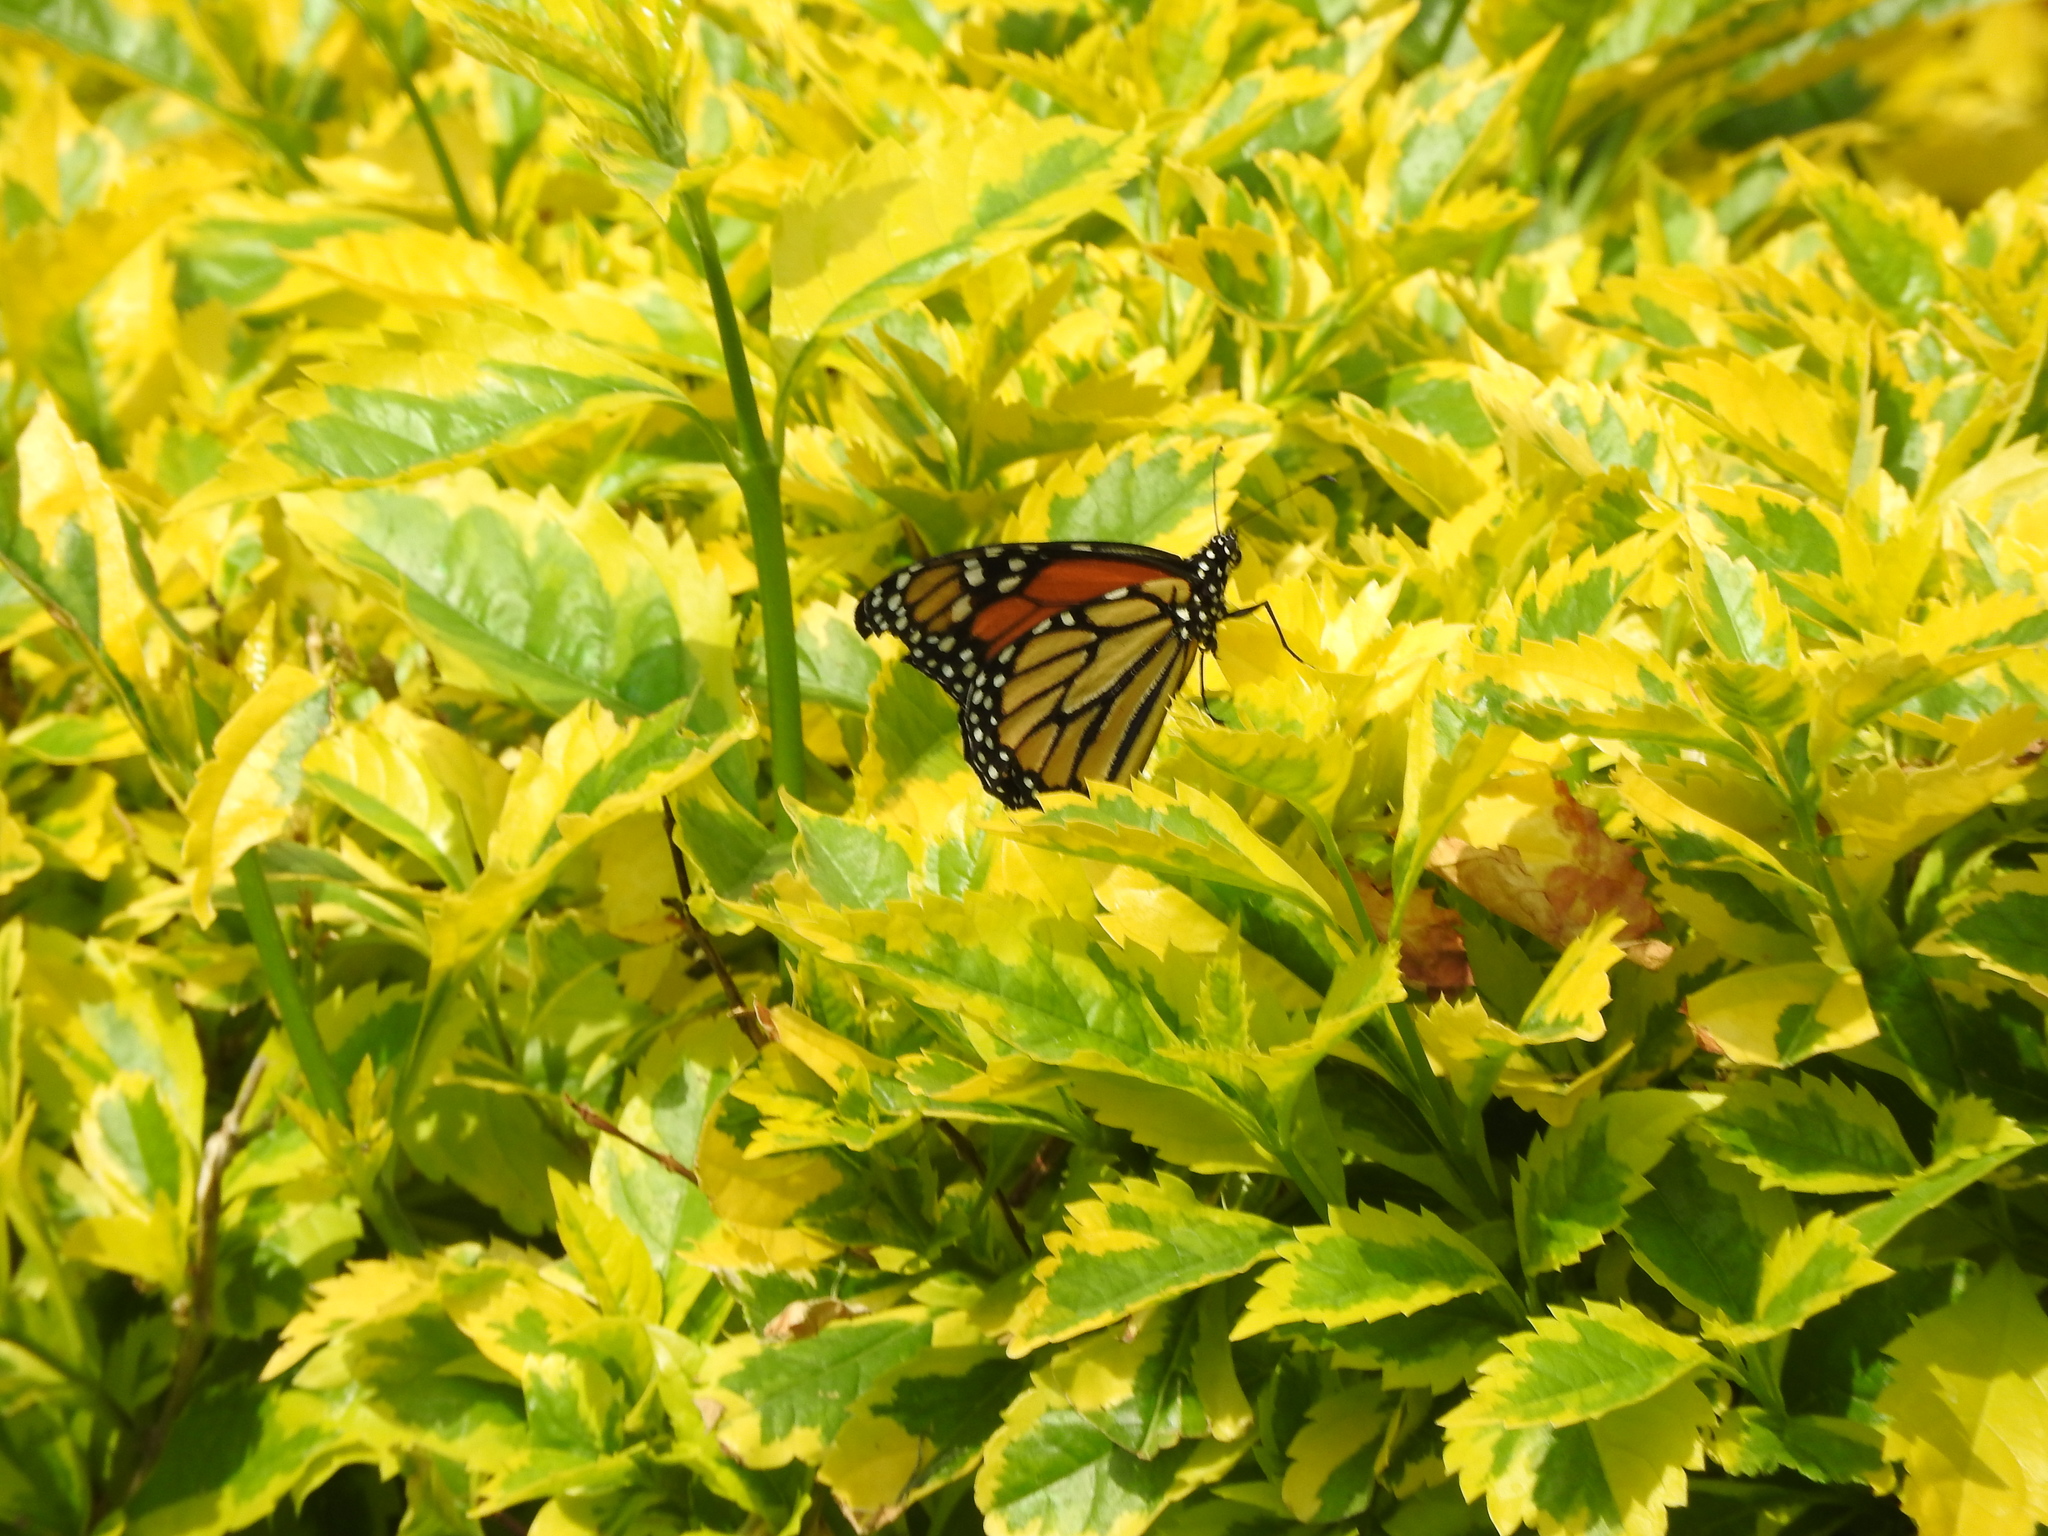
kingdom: Animalia
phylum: Arthropoda
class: Insecta
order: Lepidoptera
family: Nymphalidae
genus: Danaus
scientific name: Danaus plexippus
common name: Monarch
